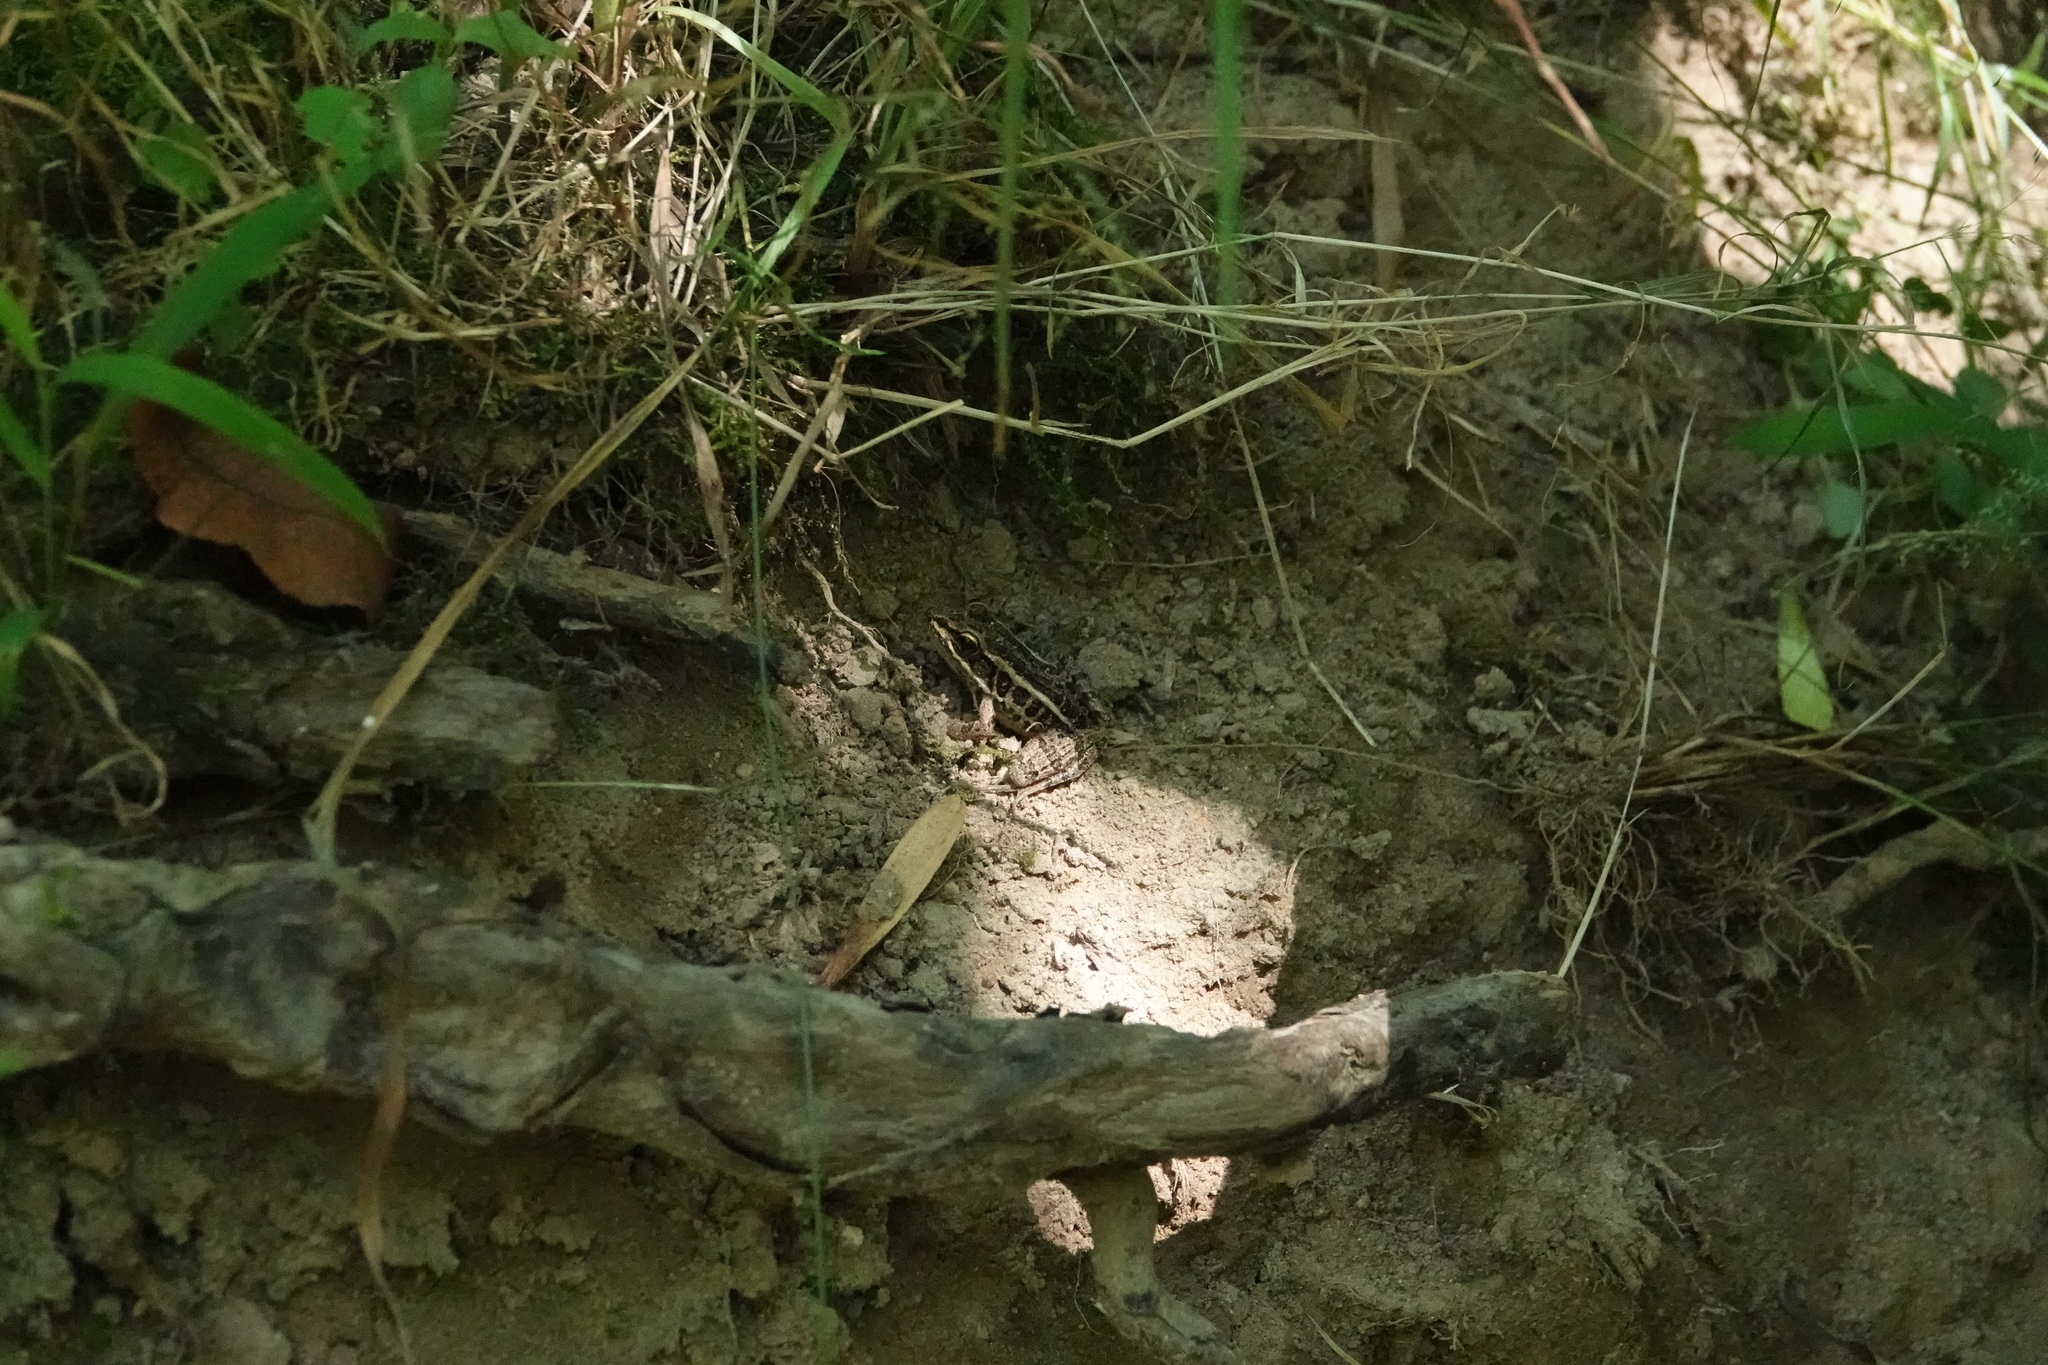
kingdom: Animalia
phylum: Chordata
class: Amphibia
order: Anura
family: Ranidae
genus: Lithobates
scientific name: Lithobates palustris
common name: Pickerel frog
